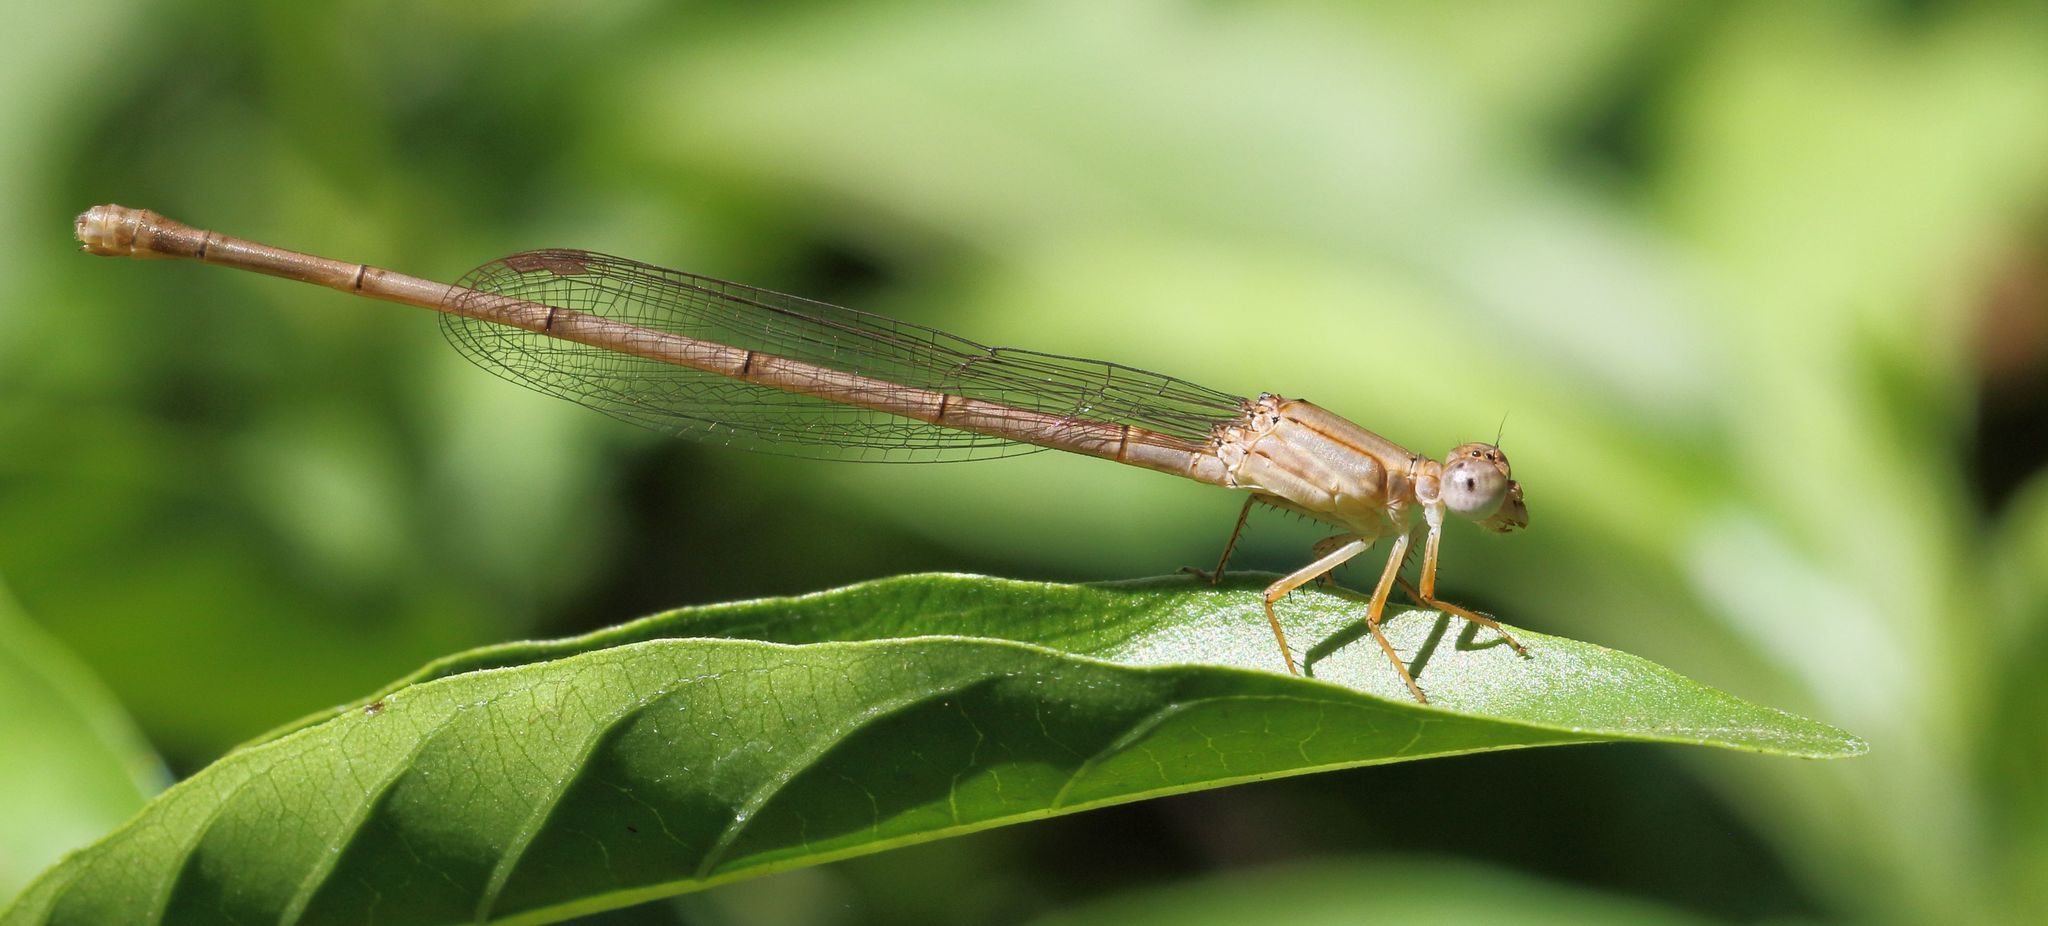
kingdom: Animalia
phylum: Arthropoda
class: Insecta
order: Odonata
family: Coenagrionidae
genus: Ceriagrion
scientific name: Ceriagrion glabrum
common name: Common pond damsel
